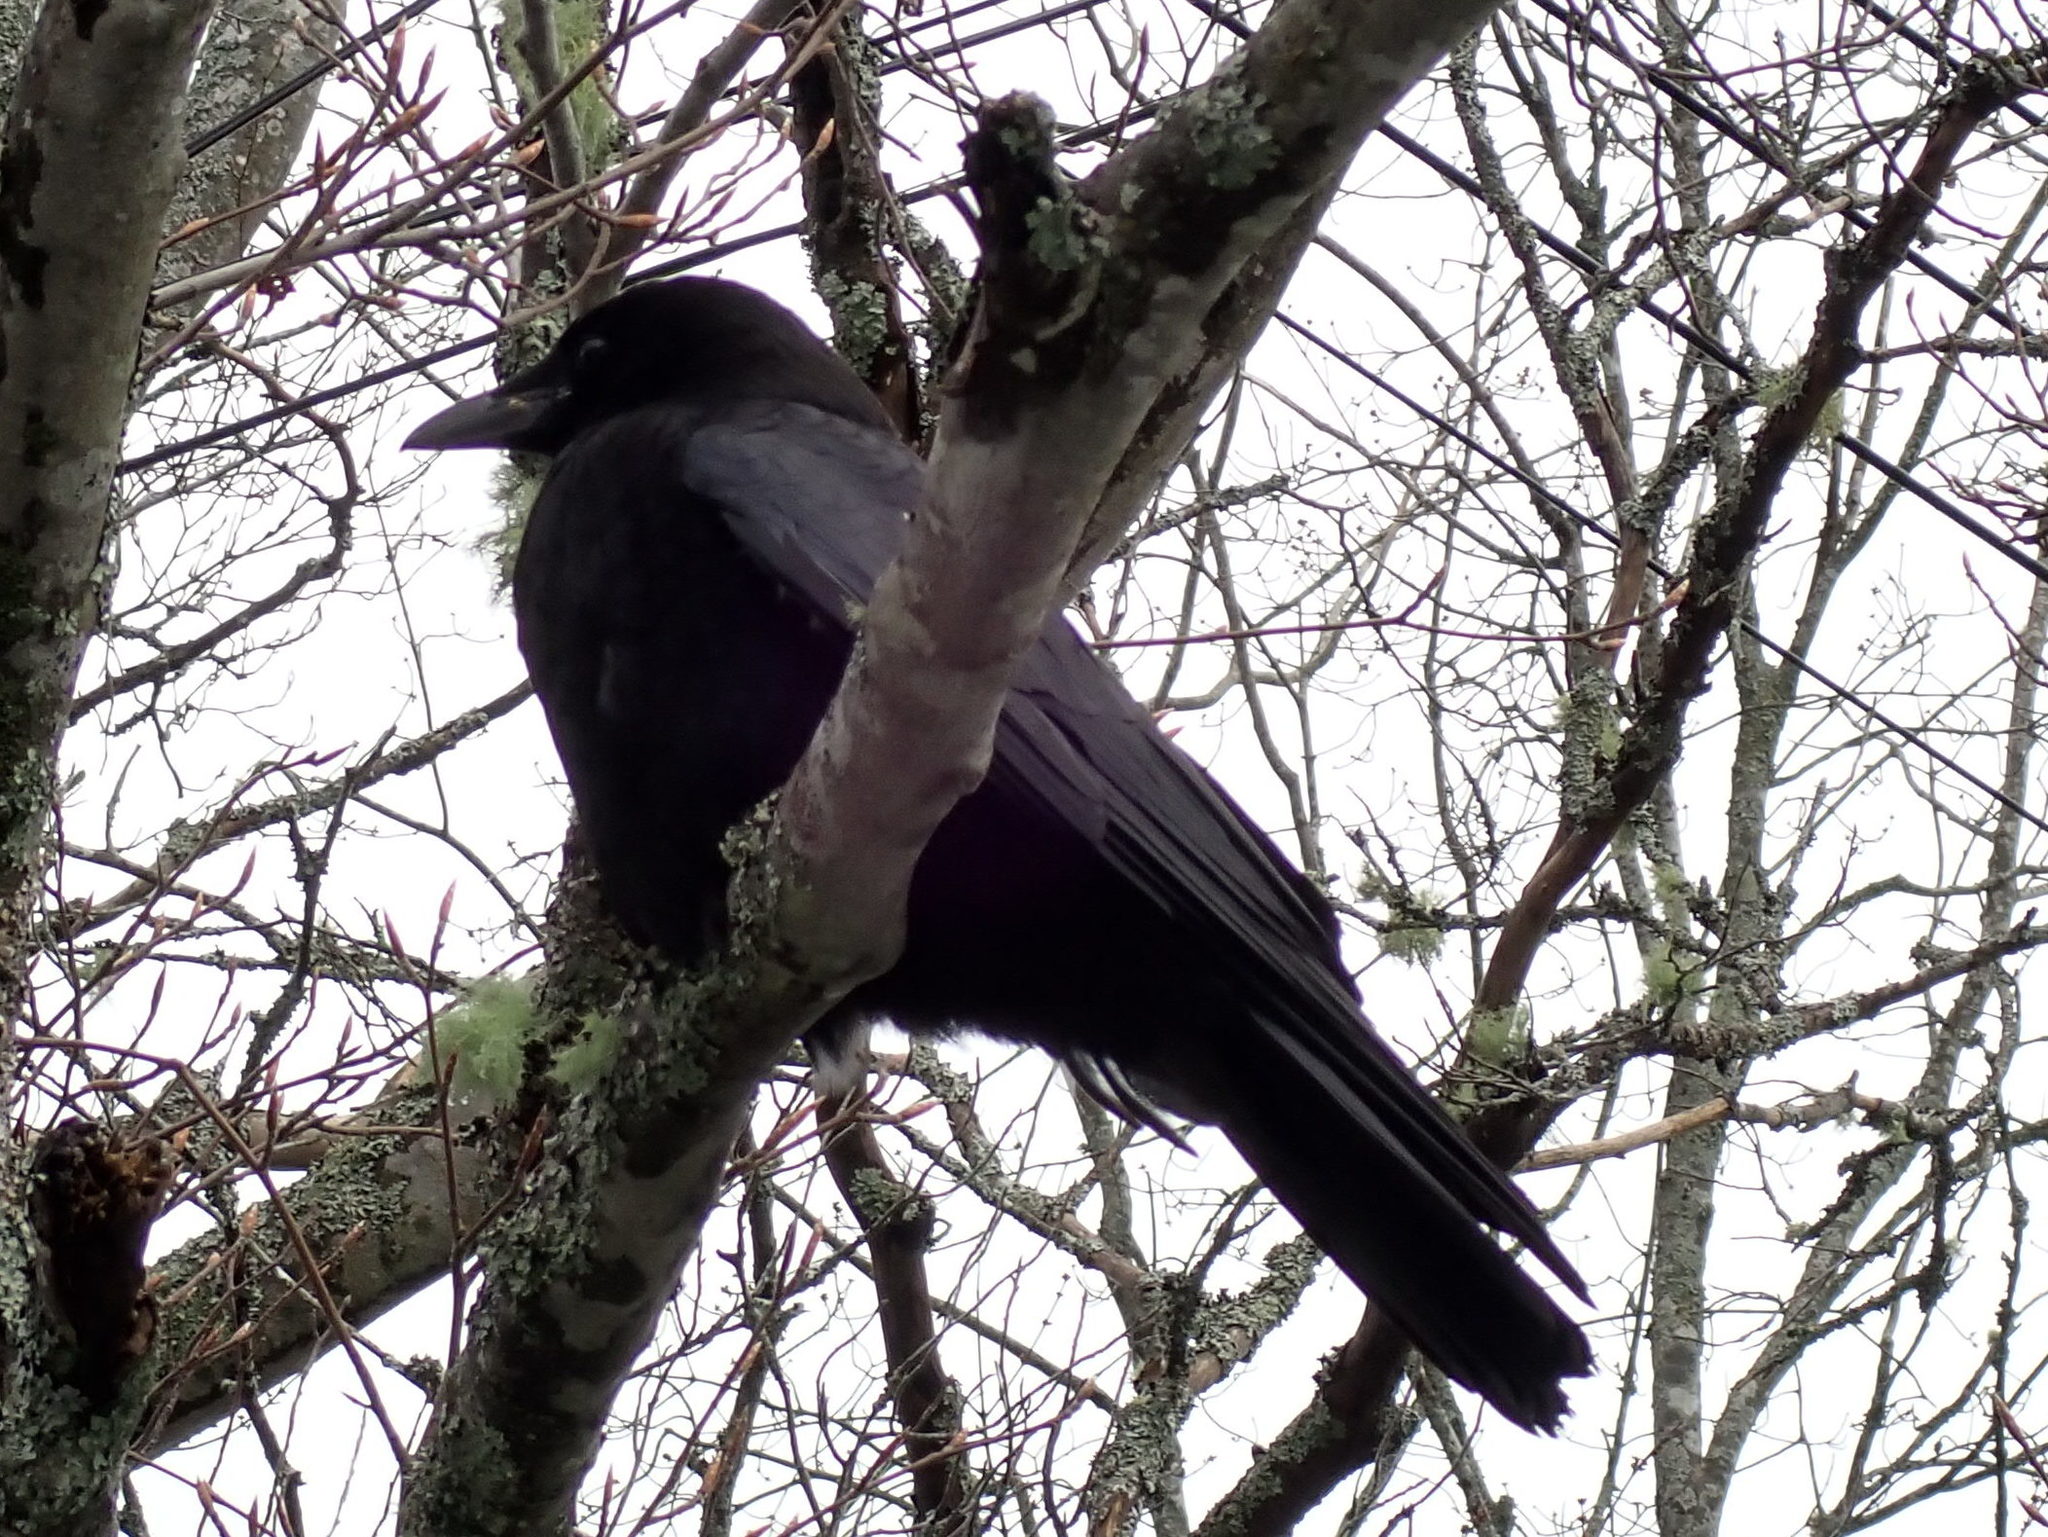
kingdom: Animalia
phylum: Chordata
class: Aves
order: Passeriformes
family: Corvidae
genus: Corvus
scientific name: Corvus brachyrhynchos
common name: American crow
